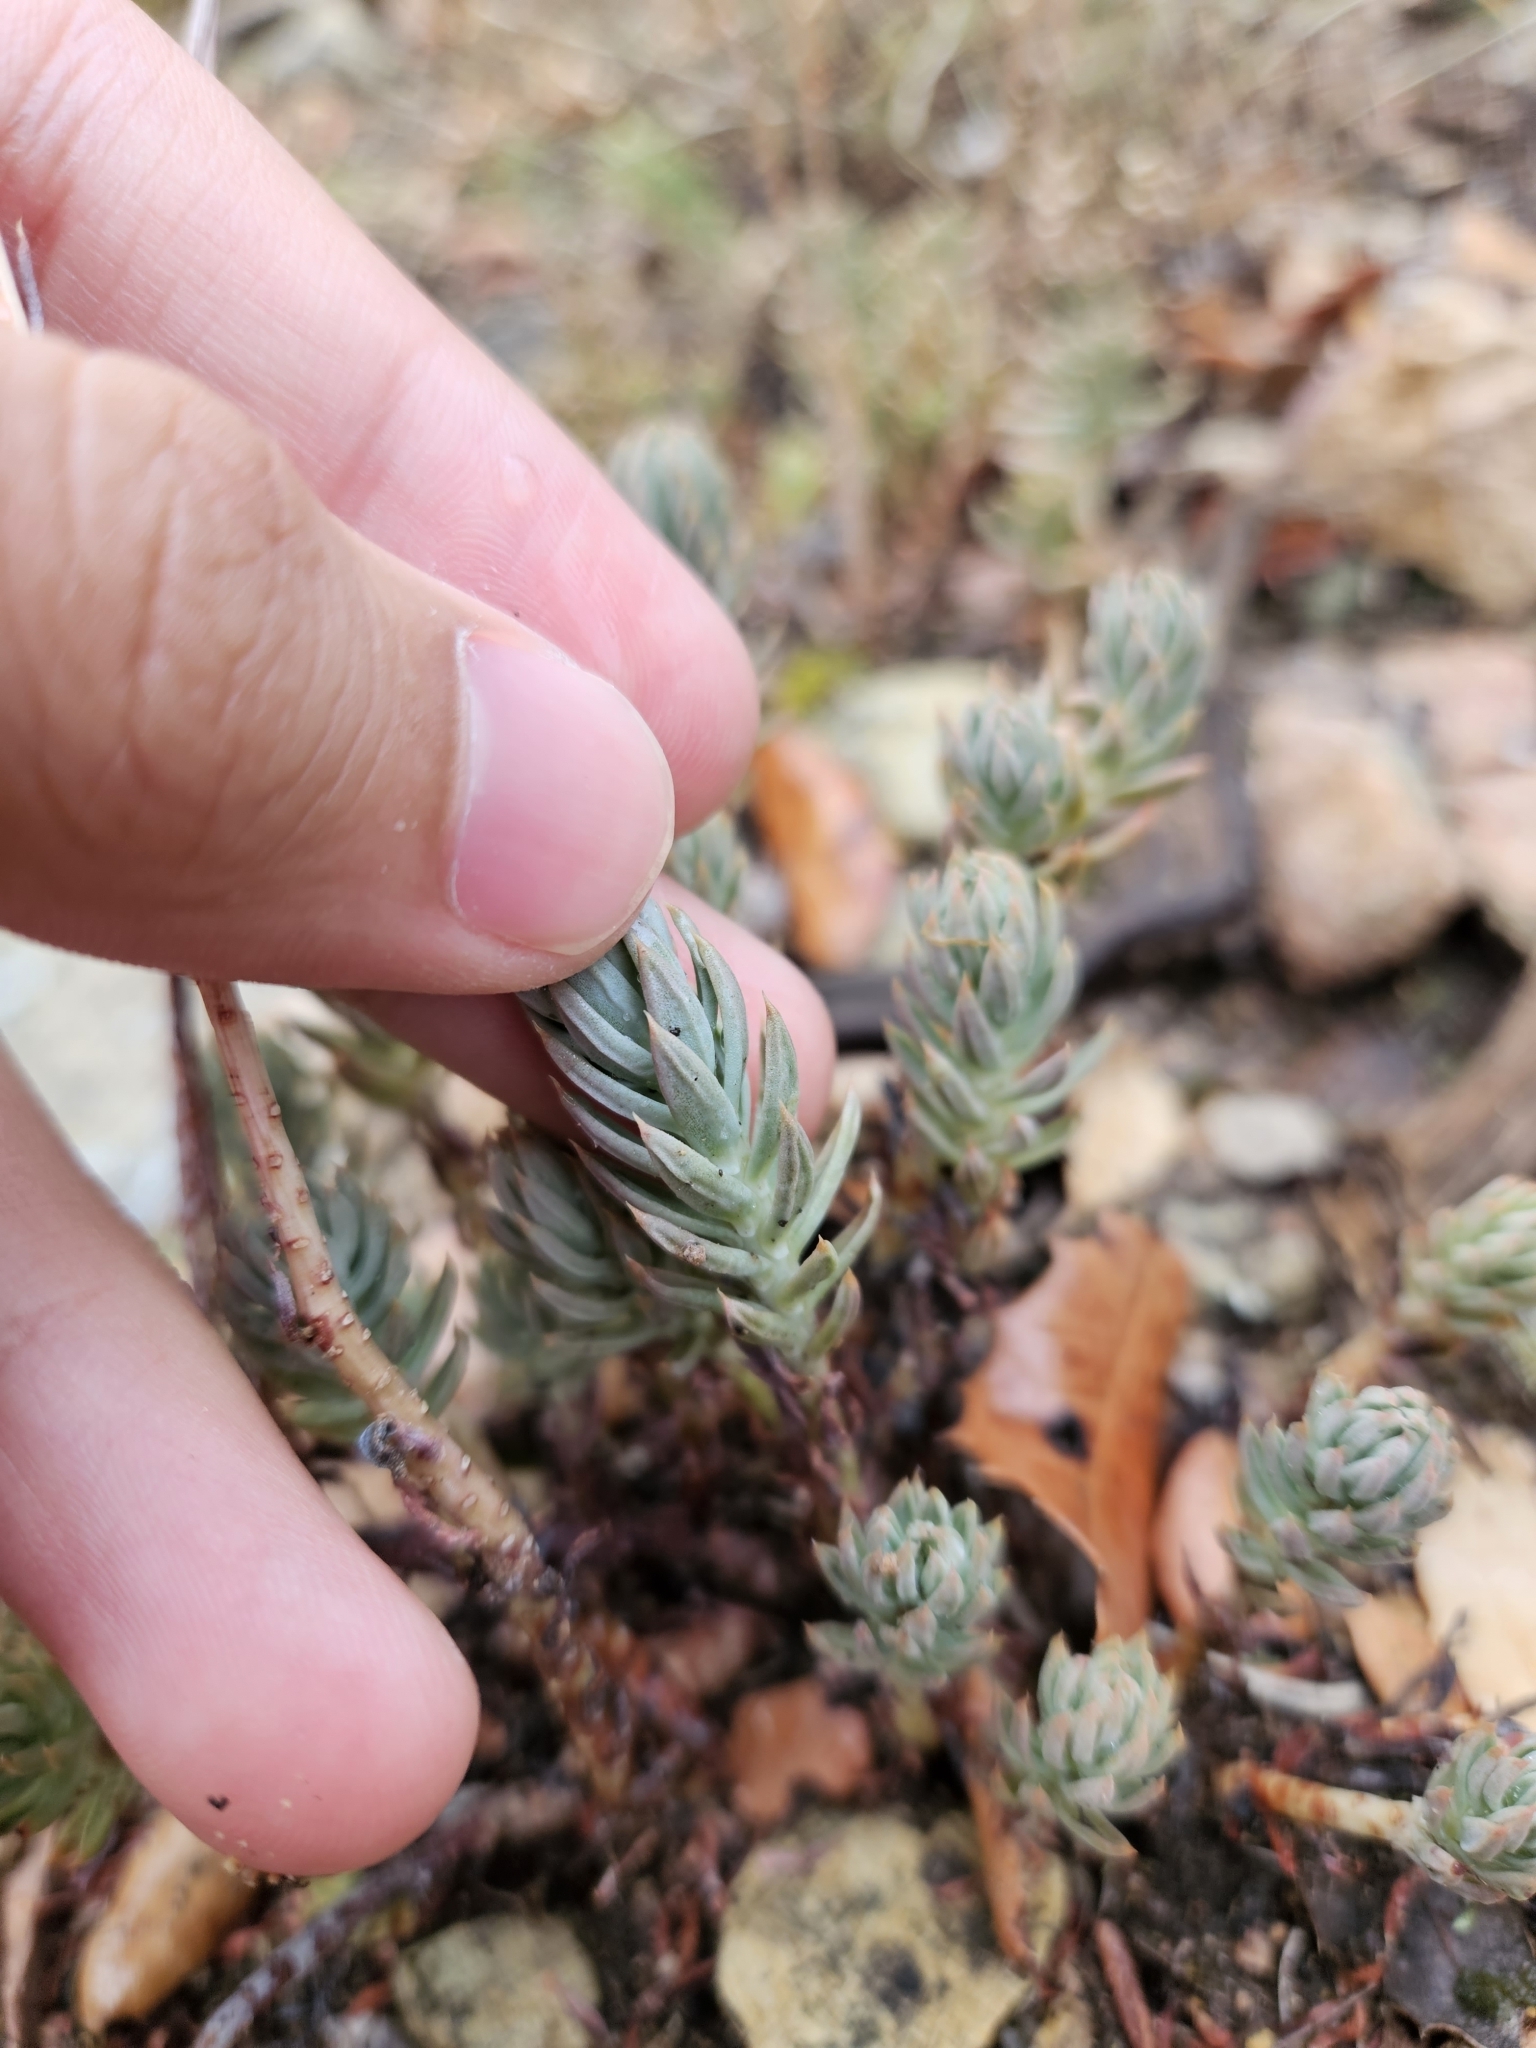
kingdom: Plantae
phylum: Tracheophyta
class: Magnoliopsida
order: Saxifragales
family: Crassulaceae
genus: Petrosedum
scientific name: Petrosedum sediforme
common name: Pale stonecrop
